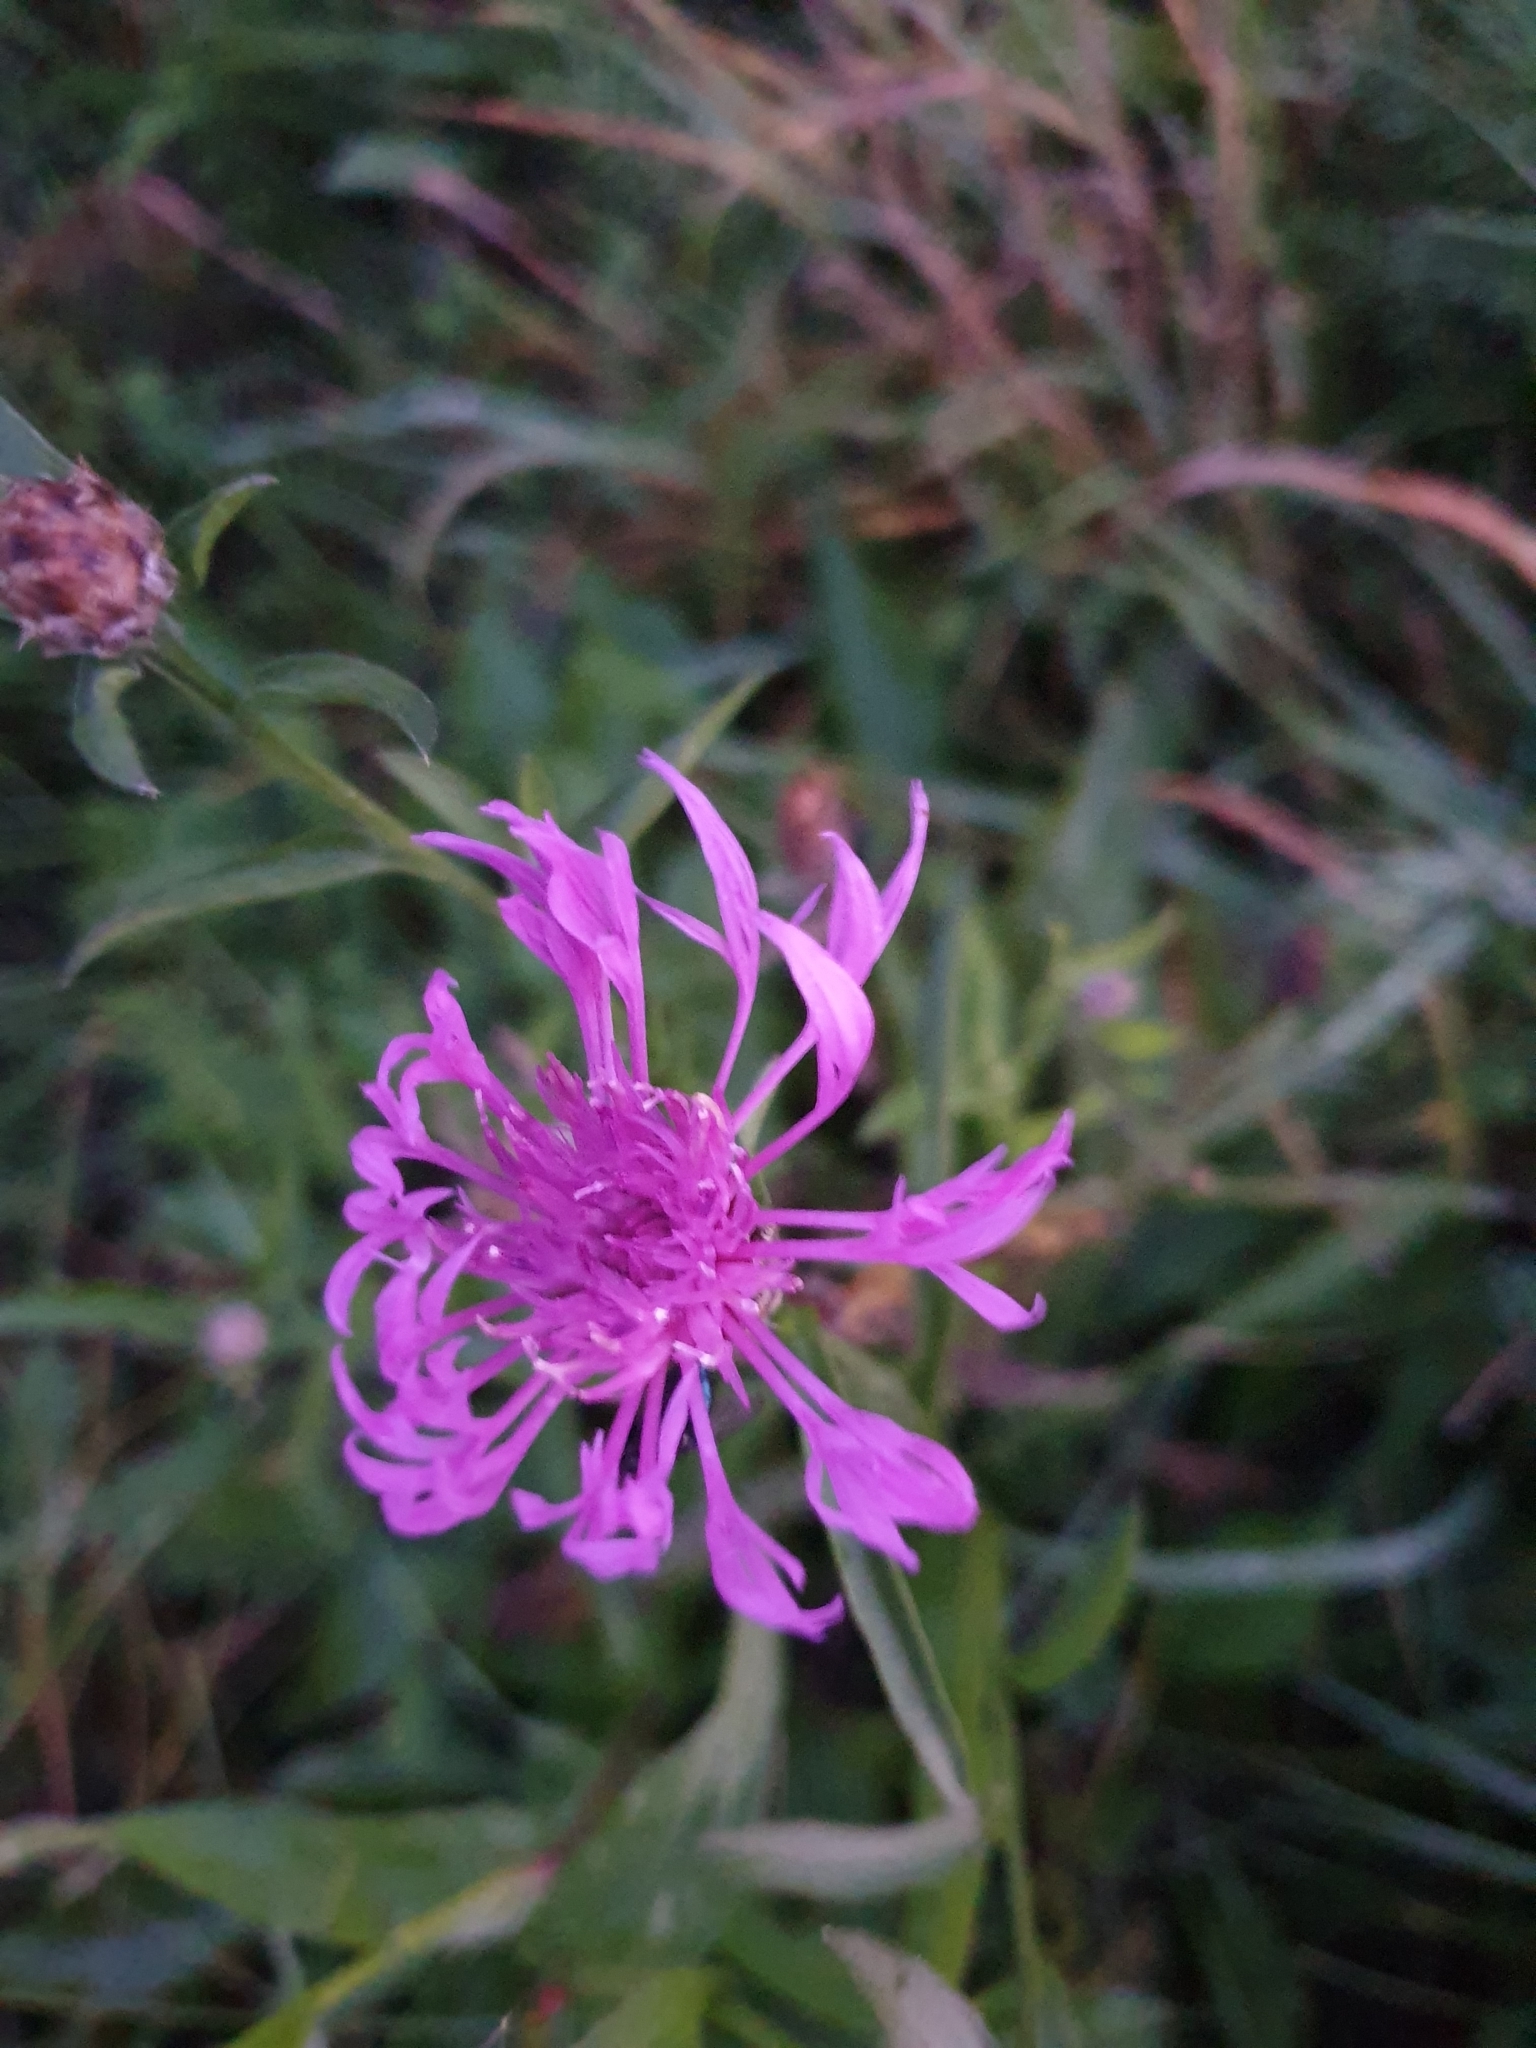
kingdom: Plantae
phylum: Tracheophyta
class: Magnoliopsida
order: Asterales
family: Asteraceae
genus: Centaurea
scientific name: Centaurea jacea
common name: Brown knapweed
